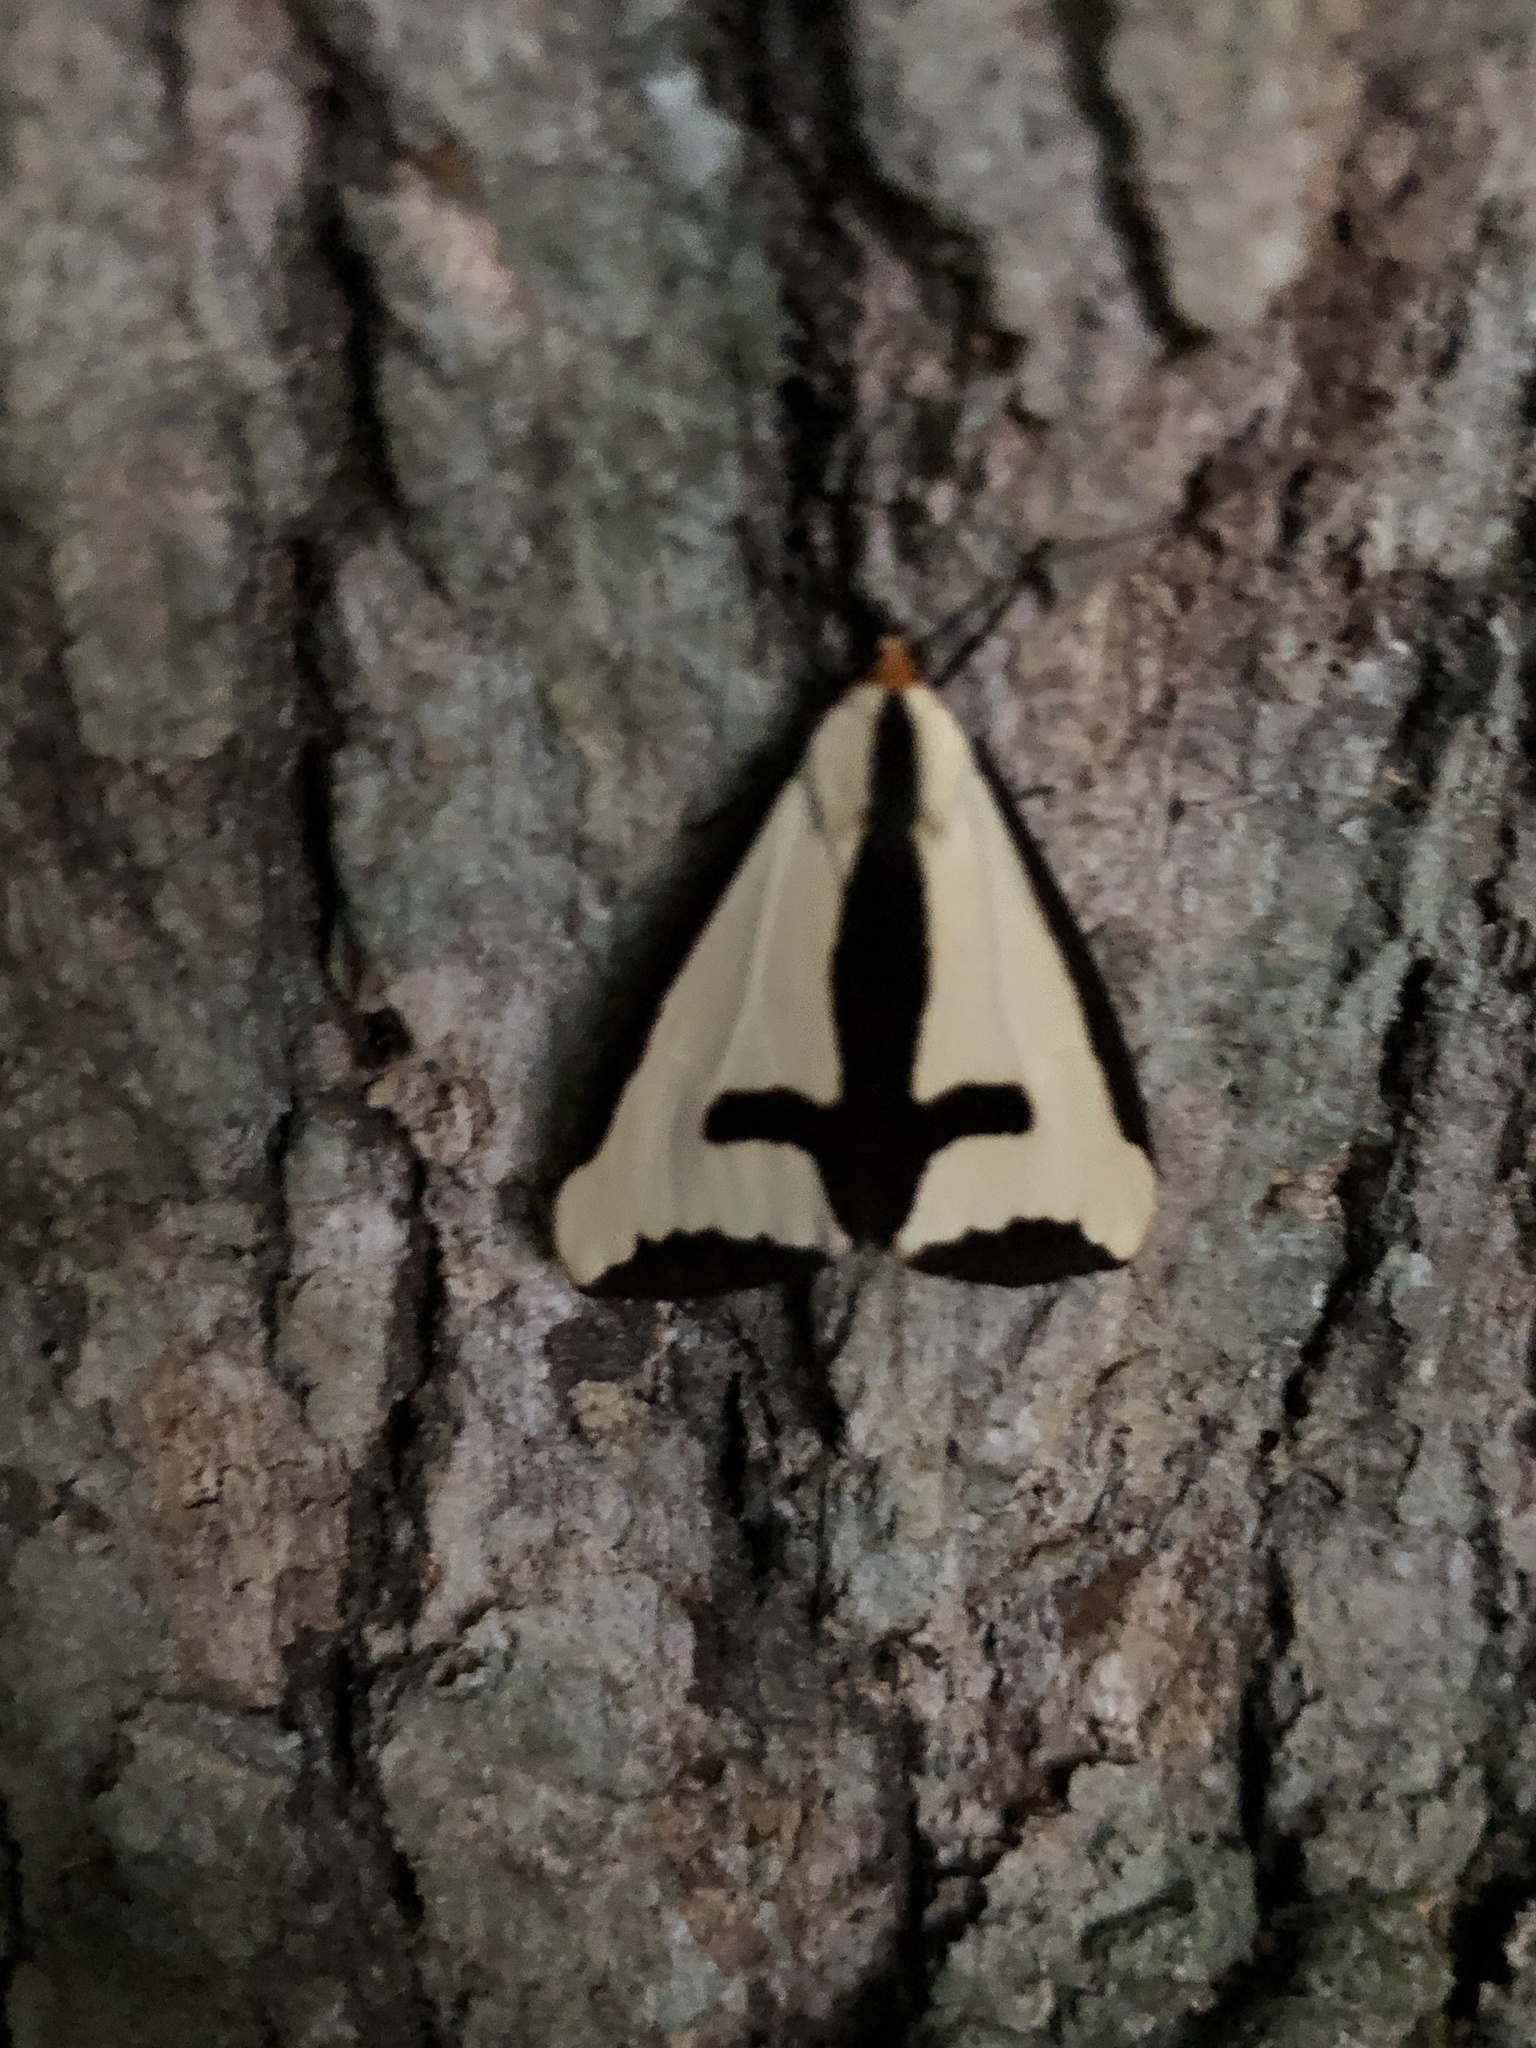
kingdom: Animalia
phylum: Arthropoda
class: Insecta
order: Lepidoptera
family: Erebidae
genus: Haploa
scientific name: Haploa clymene
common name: Clymene moth
